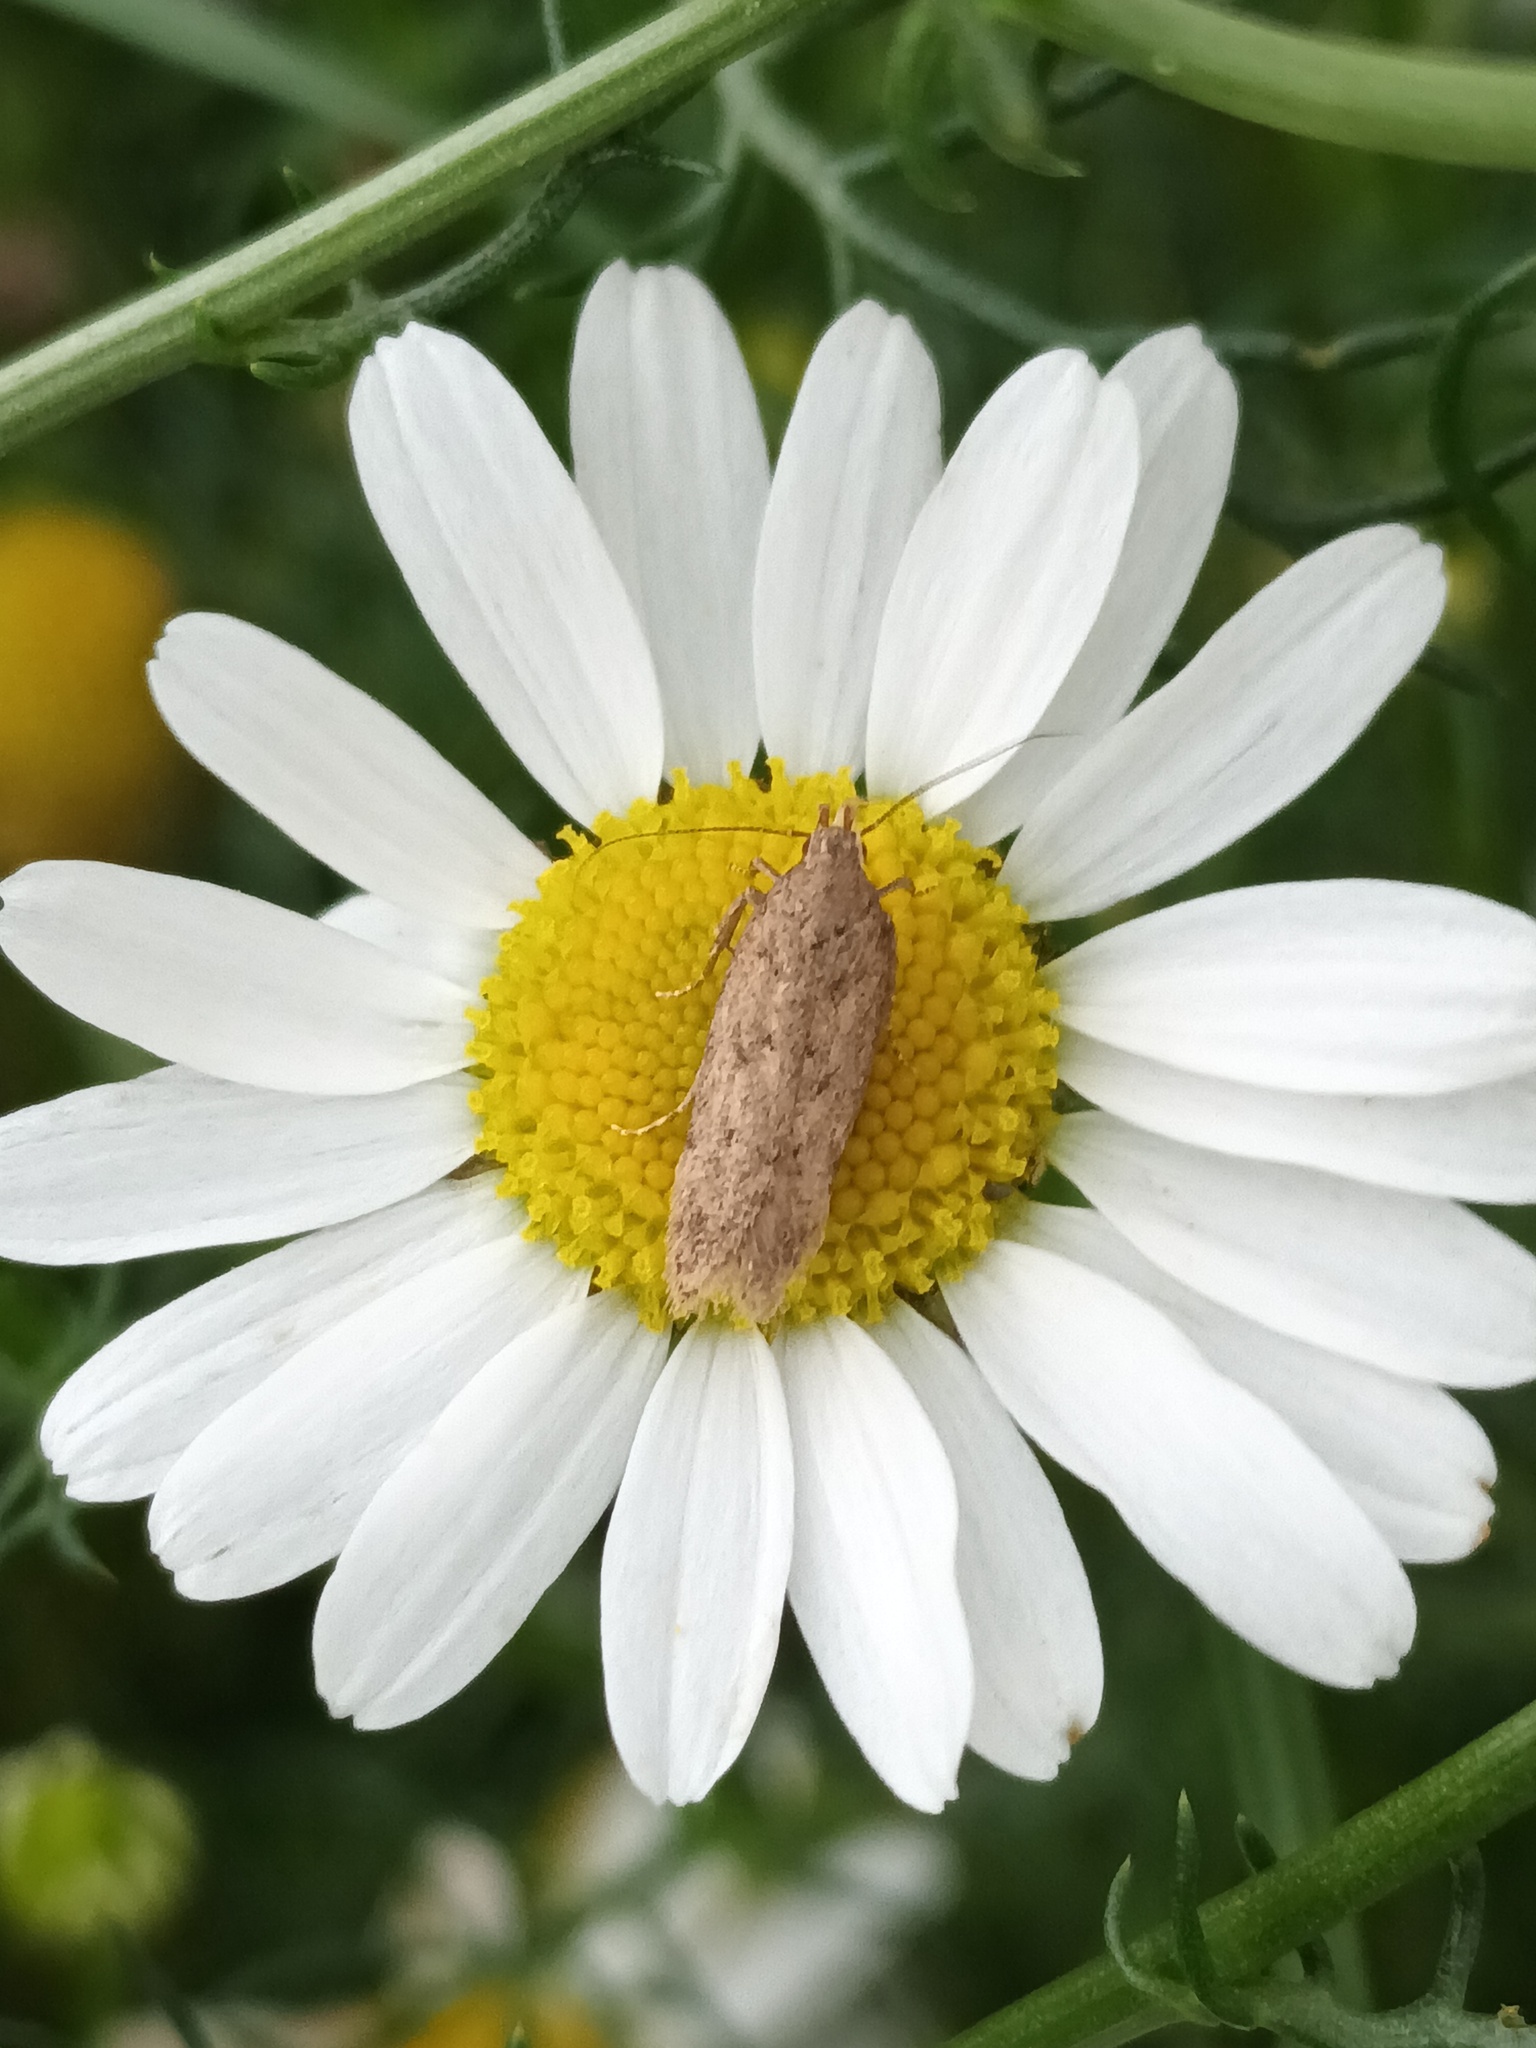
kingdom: Animalia
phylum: Arthropoda
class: Insecta
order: Lepidoptera
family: Gelechiidae
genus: Bryotropha
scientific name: Bryotropha terrella
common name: Cinerous groundling
